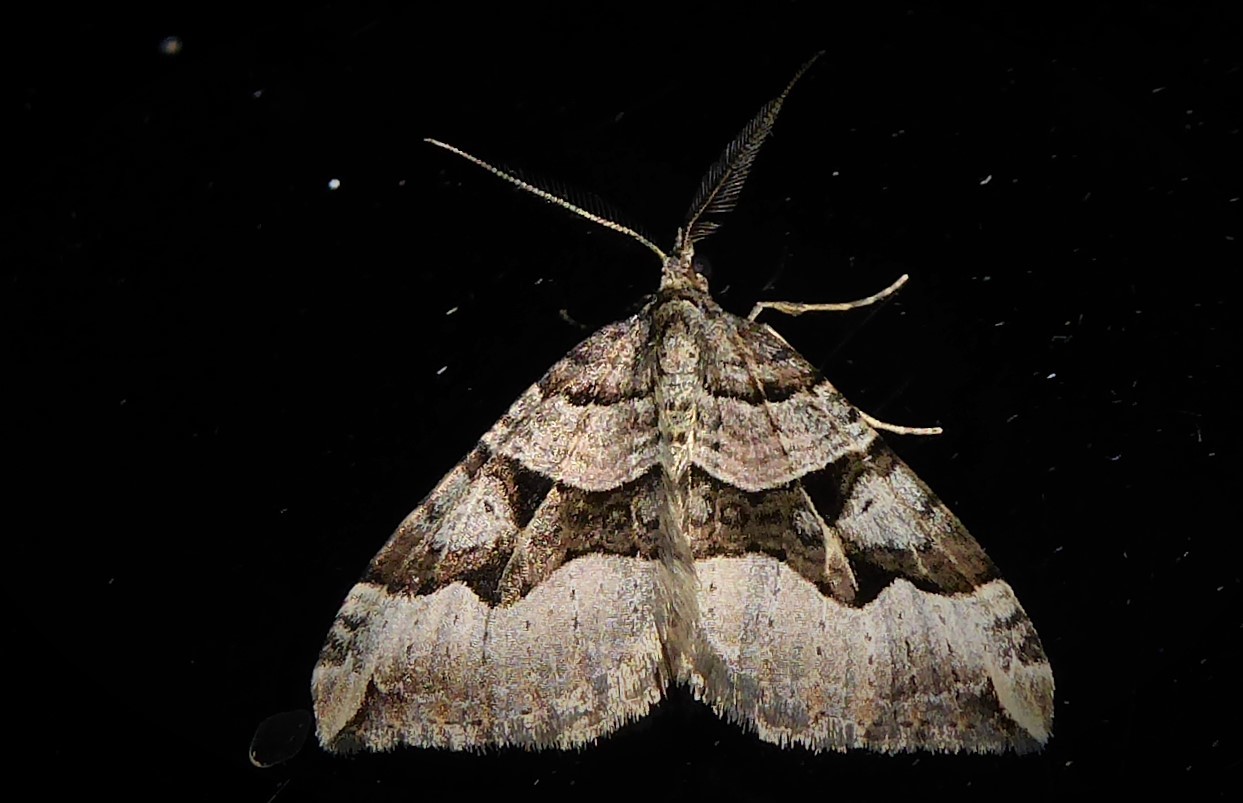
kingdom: Animalia
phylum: Arthropoda
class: Insecta
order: Lepidoptera
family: Geometridae
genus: Xanthorhoe
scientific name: Xanthorhoe semifissata
